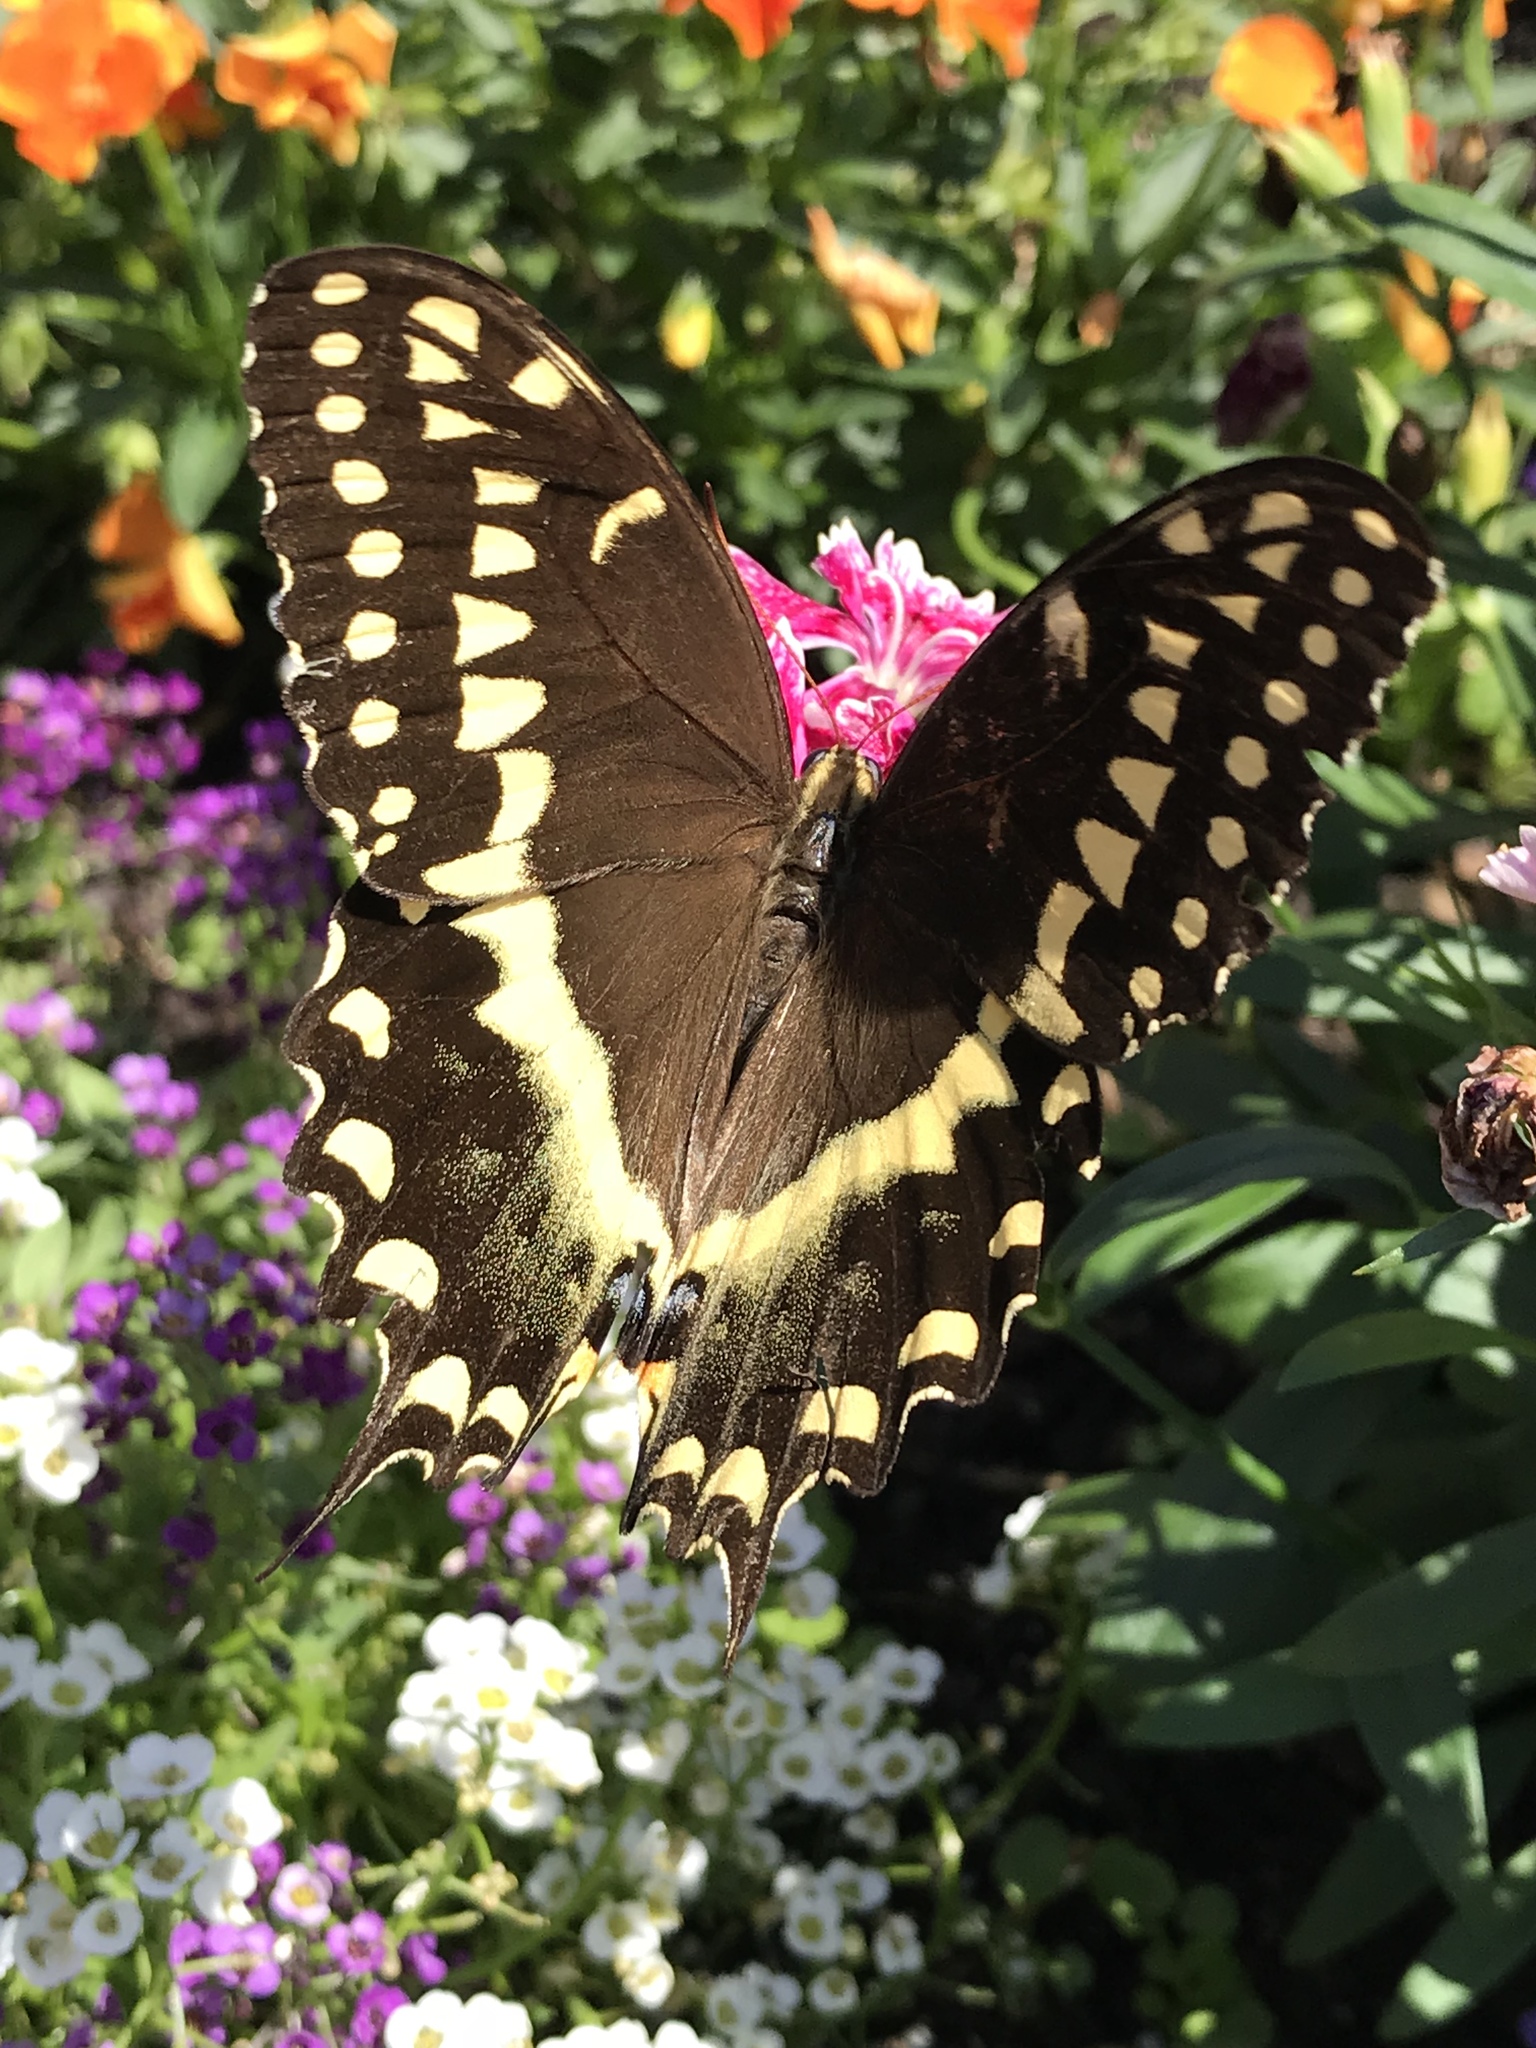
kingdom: Animalia
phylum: Arthropoda
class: Insecta
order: Lepidoptera
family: Papilionidae
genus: Papilio
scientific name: Papilio palamedes
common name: Palamedes swallowtail
